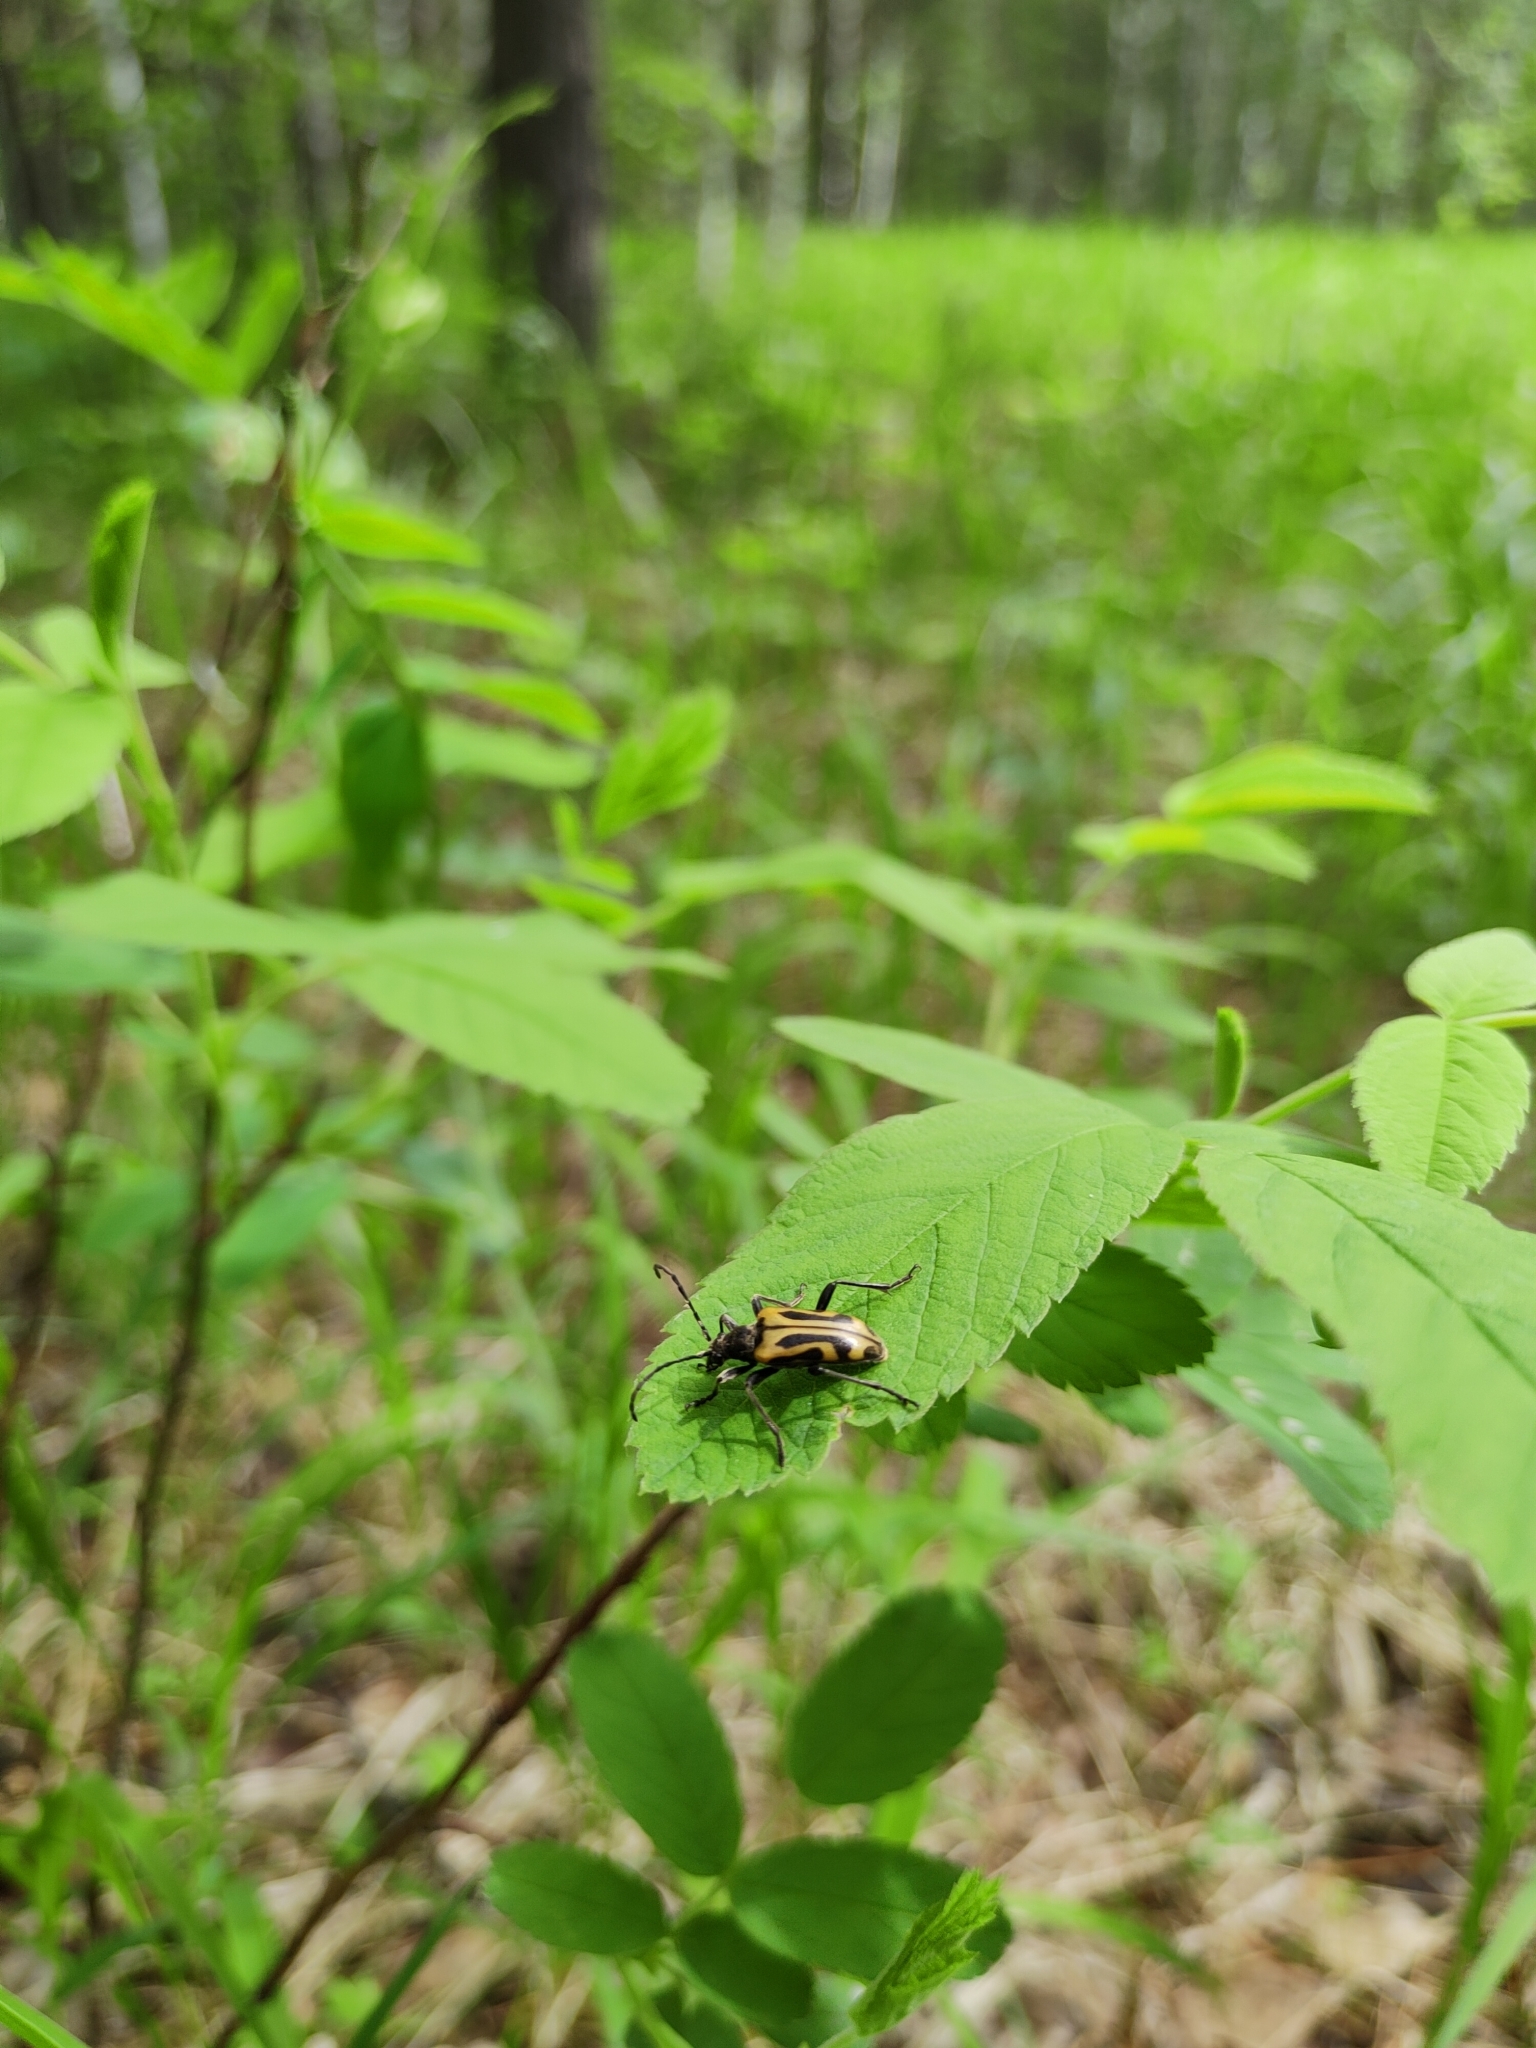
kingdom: Animalia
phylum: Arthropoda
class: Insecta
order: Coleoptera
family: Cerambycidae
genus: Brachyta
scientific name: Brachyta interrogationis
